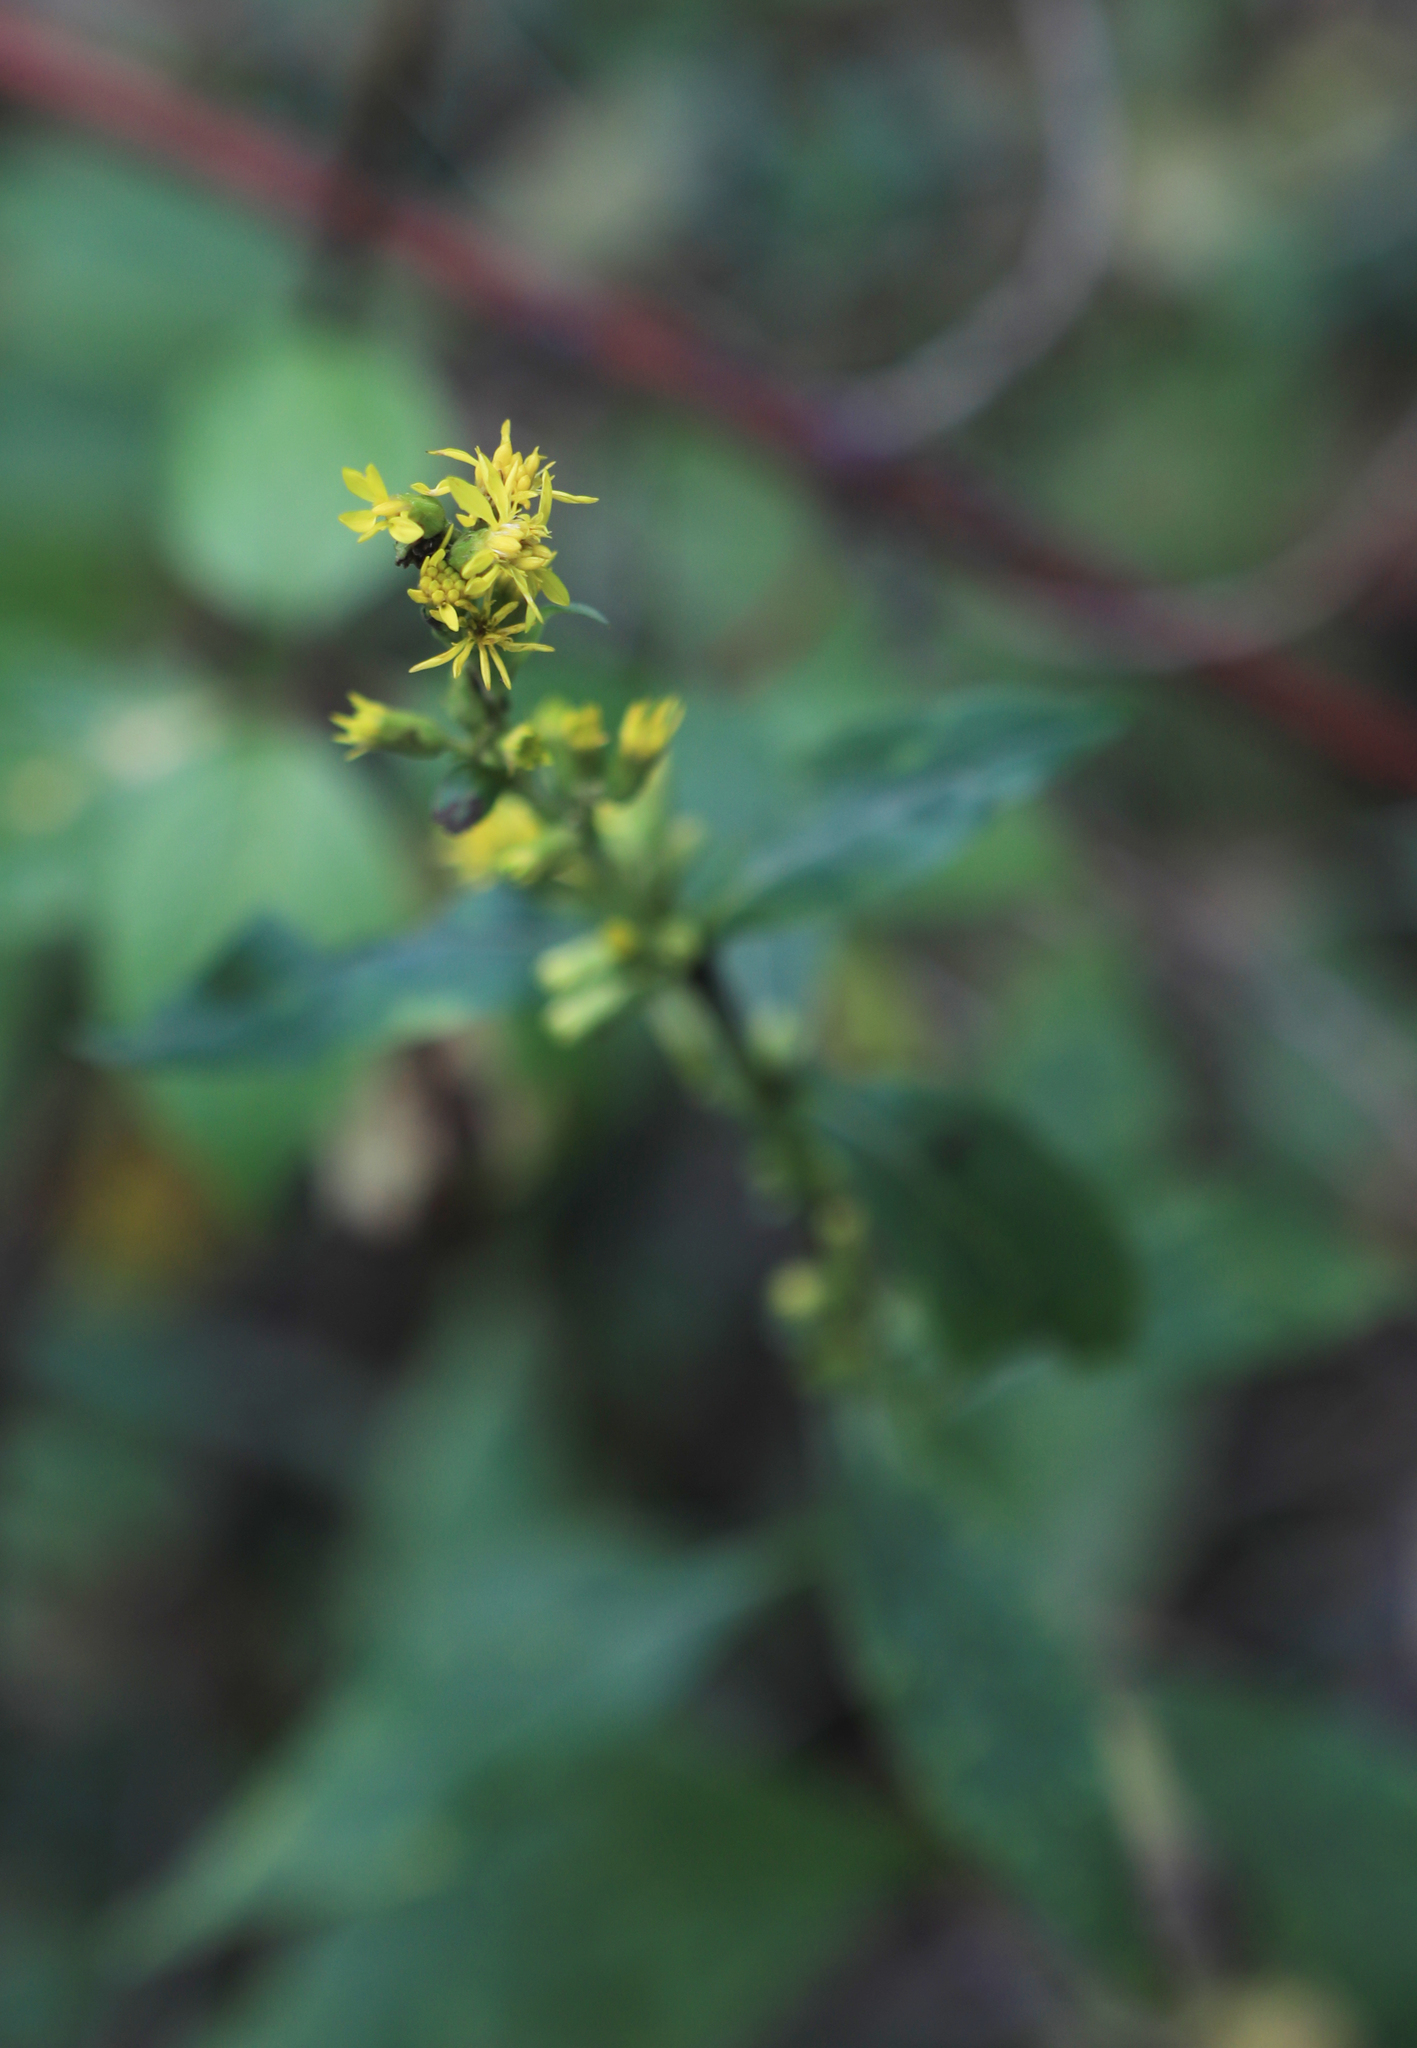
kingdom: Plantae
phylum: Tracheophyta
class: Magnoliopsida
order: Asterales
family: Asteraceae
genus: Solidago
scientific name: Solidago virgaurea
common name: Goldenrod
